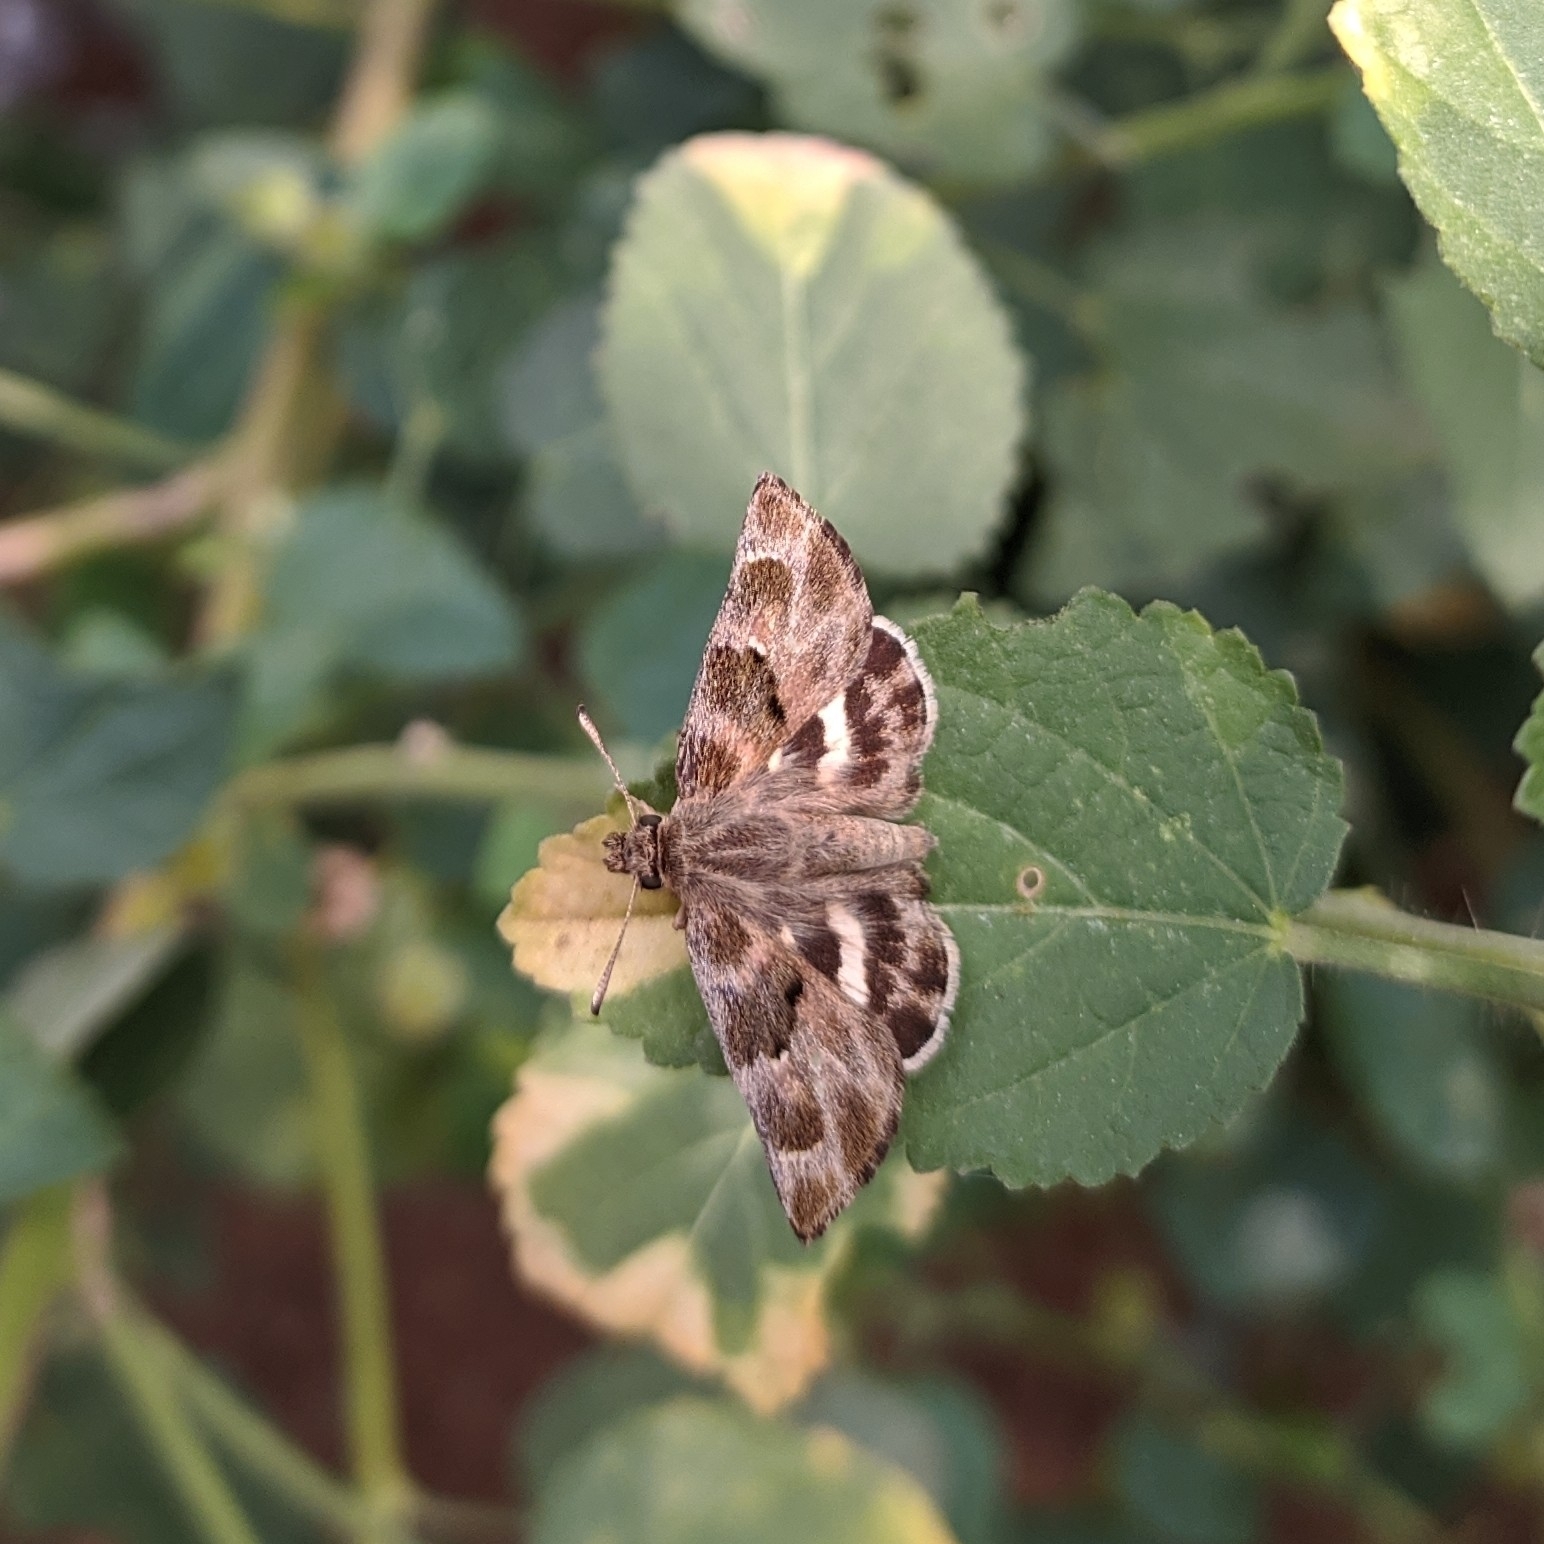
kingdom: Animalia
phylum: Arthropoda
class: Insecta
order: Lepidoptera
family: Hesperiidae
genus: Gomalia
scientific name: Gomalia elma
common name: Green-marbled skipper
